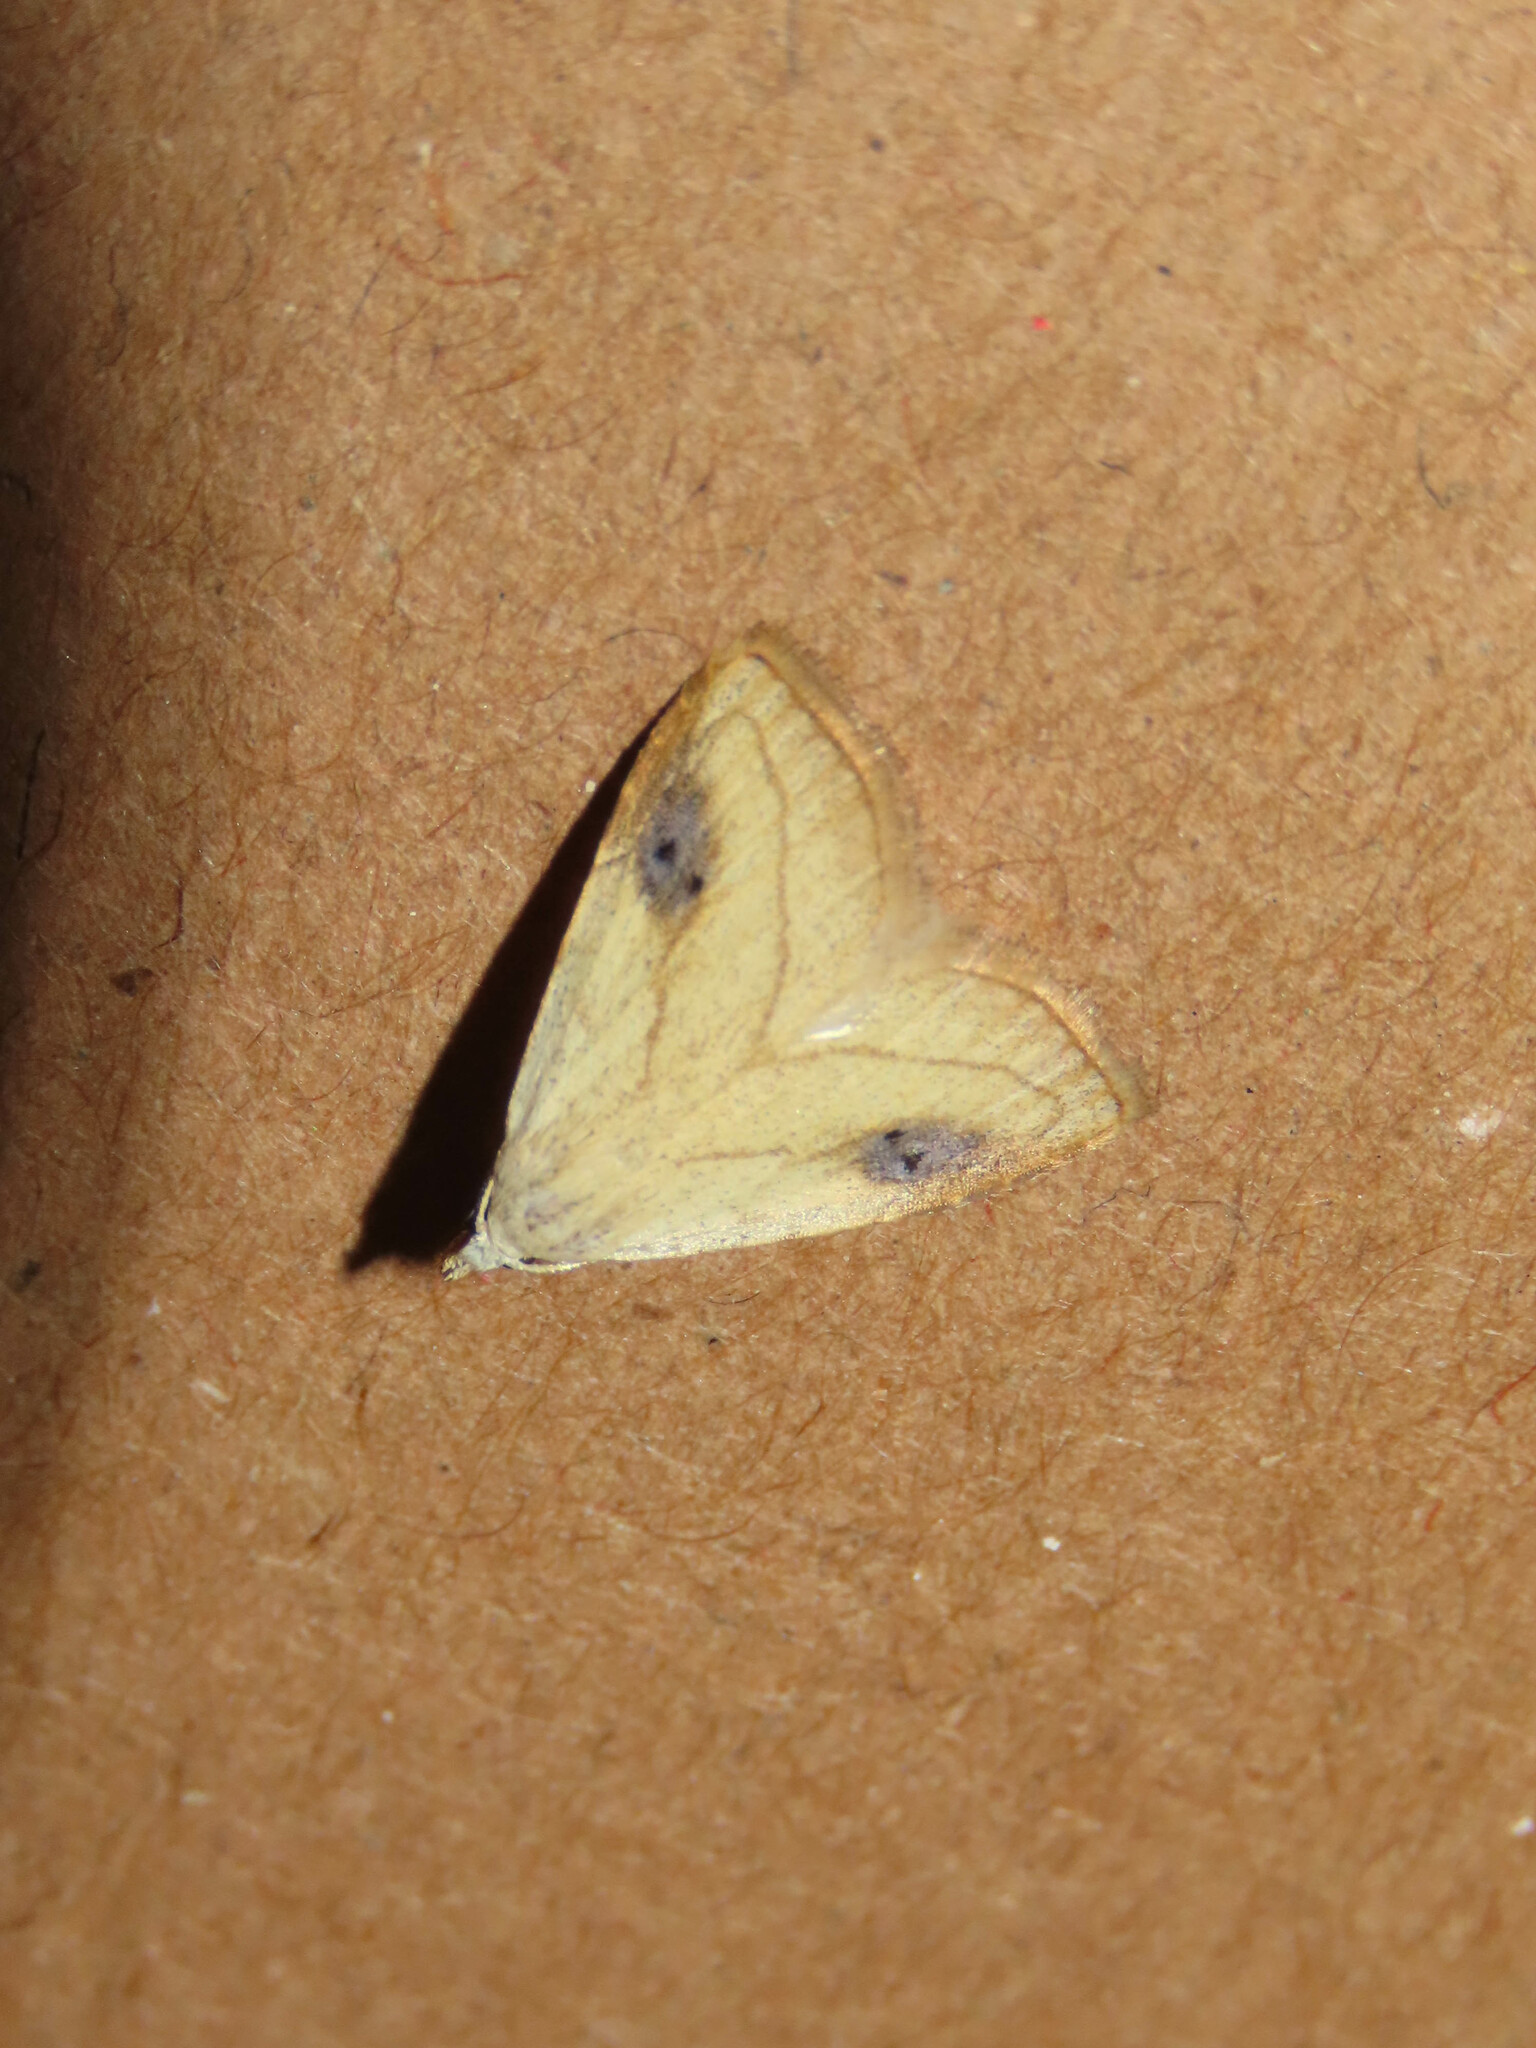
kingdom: Animalia
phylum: Arthropoda
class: Insecta
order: Lepidoptera
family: Erebidae
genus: Rivula
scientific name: Rivula propinqualis
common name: Spotted grass moth
